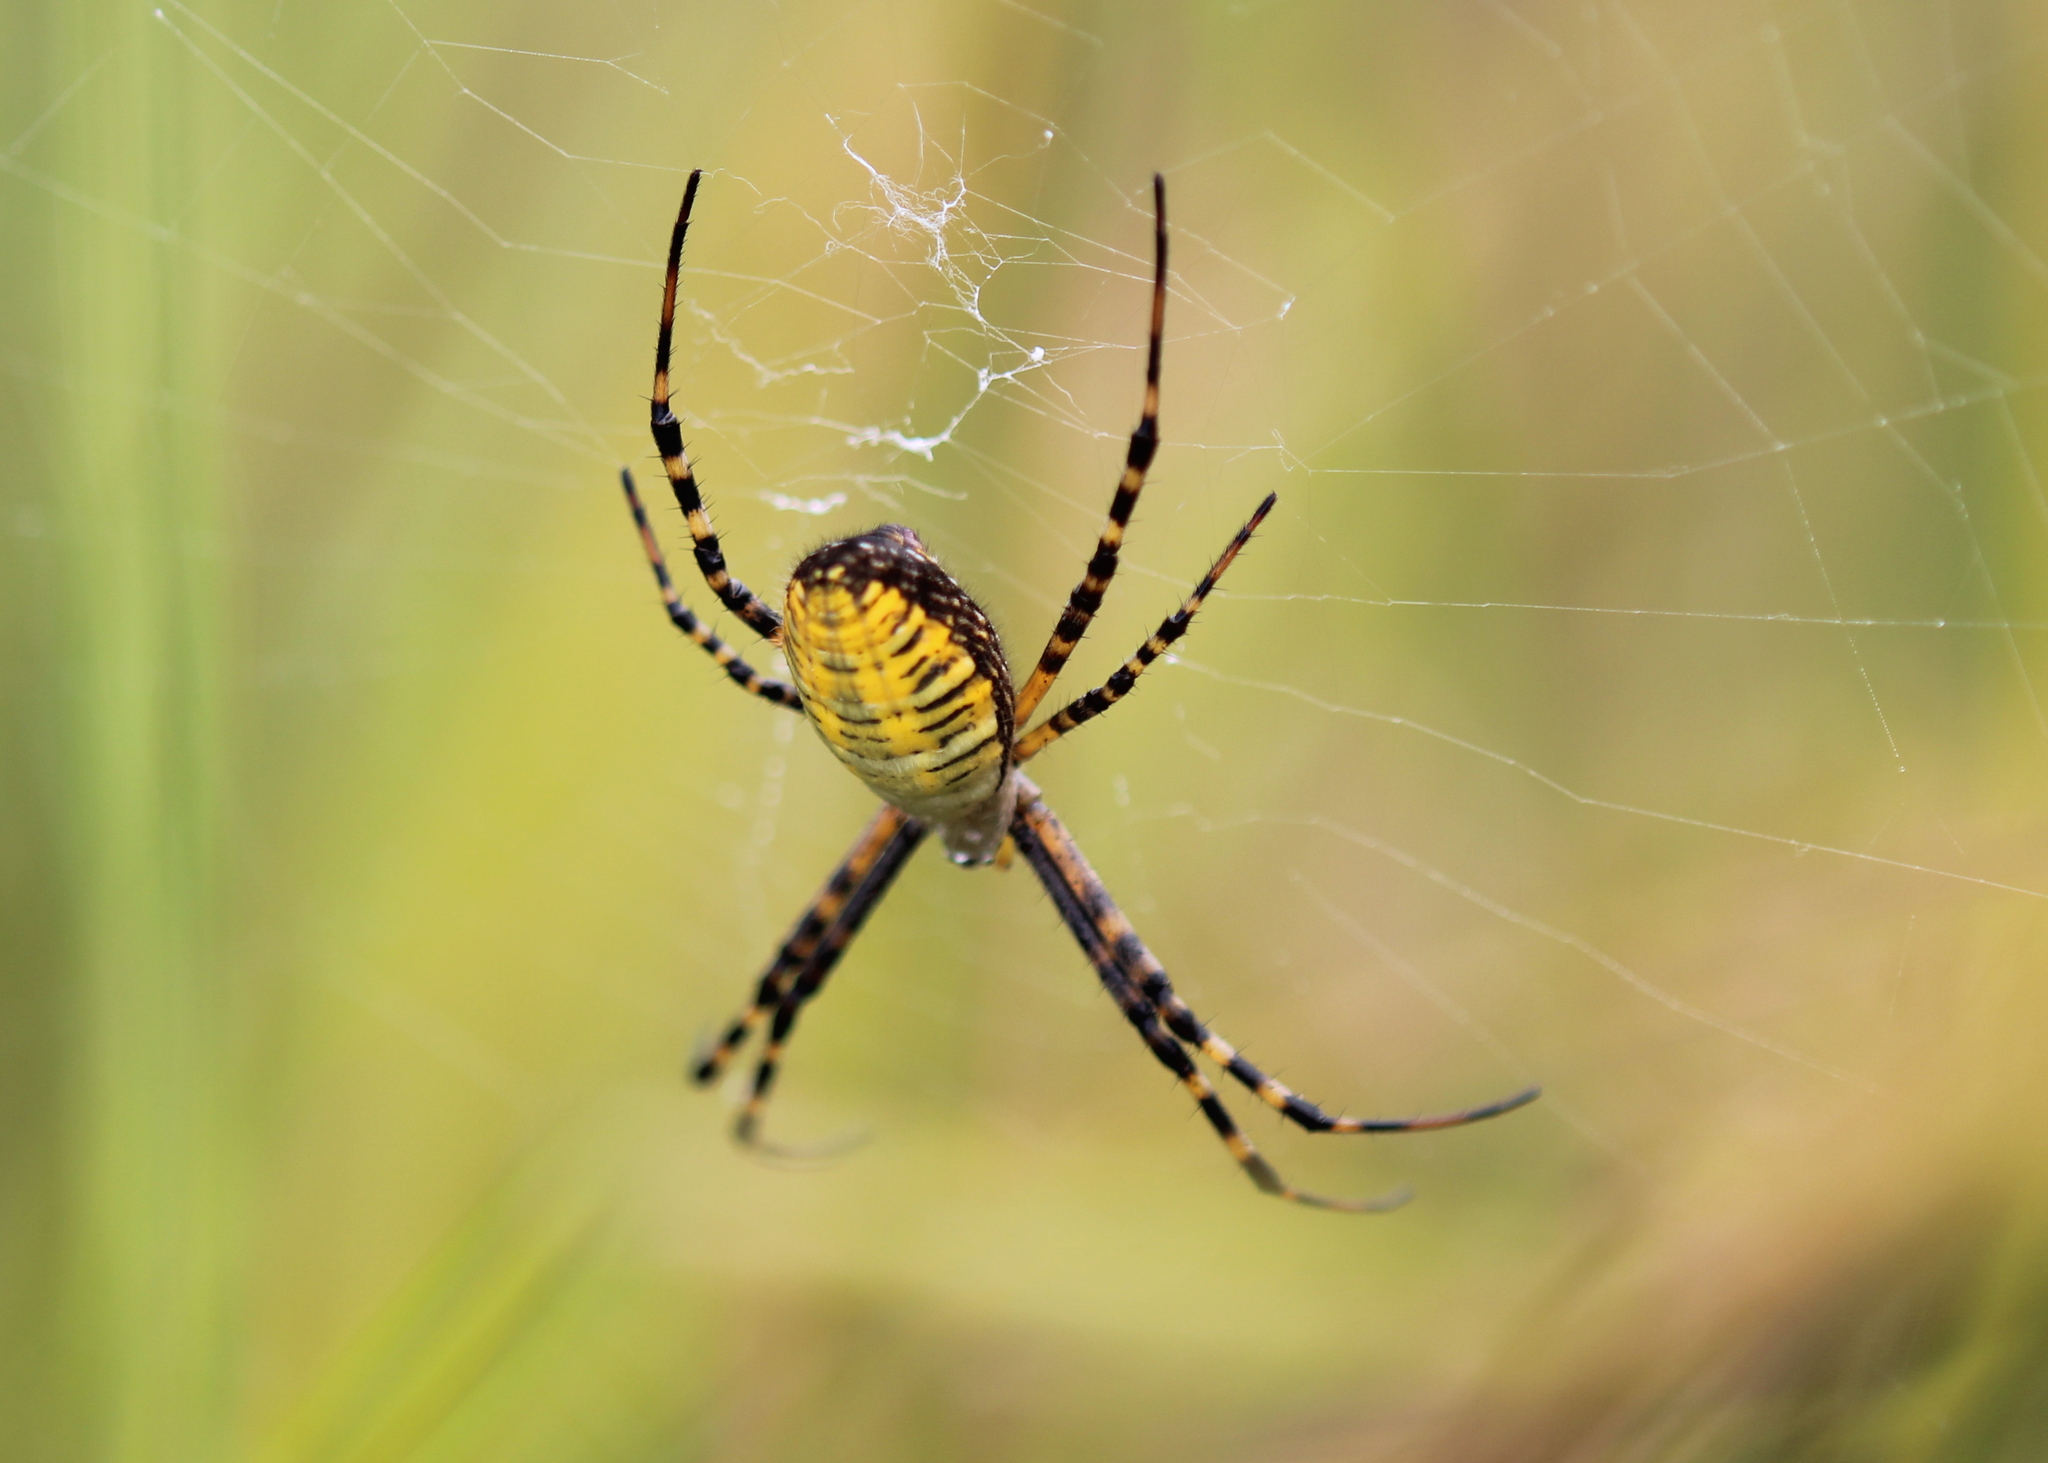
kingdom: Animalia
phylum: Arthropoda
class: Arachnida
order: Araneae
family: Araneidae
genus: Argiope
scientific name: Argiope trifasciata
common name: Banded garden spider
